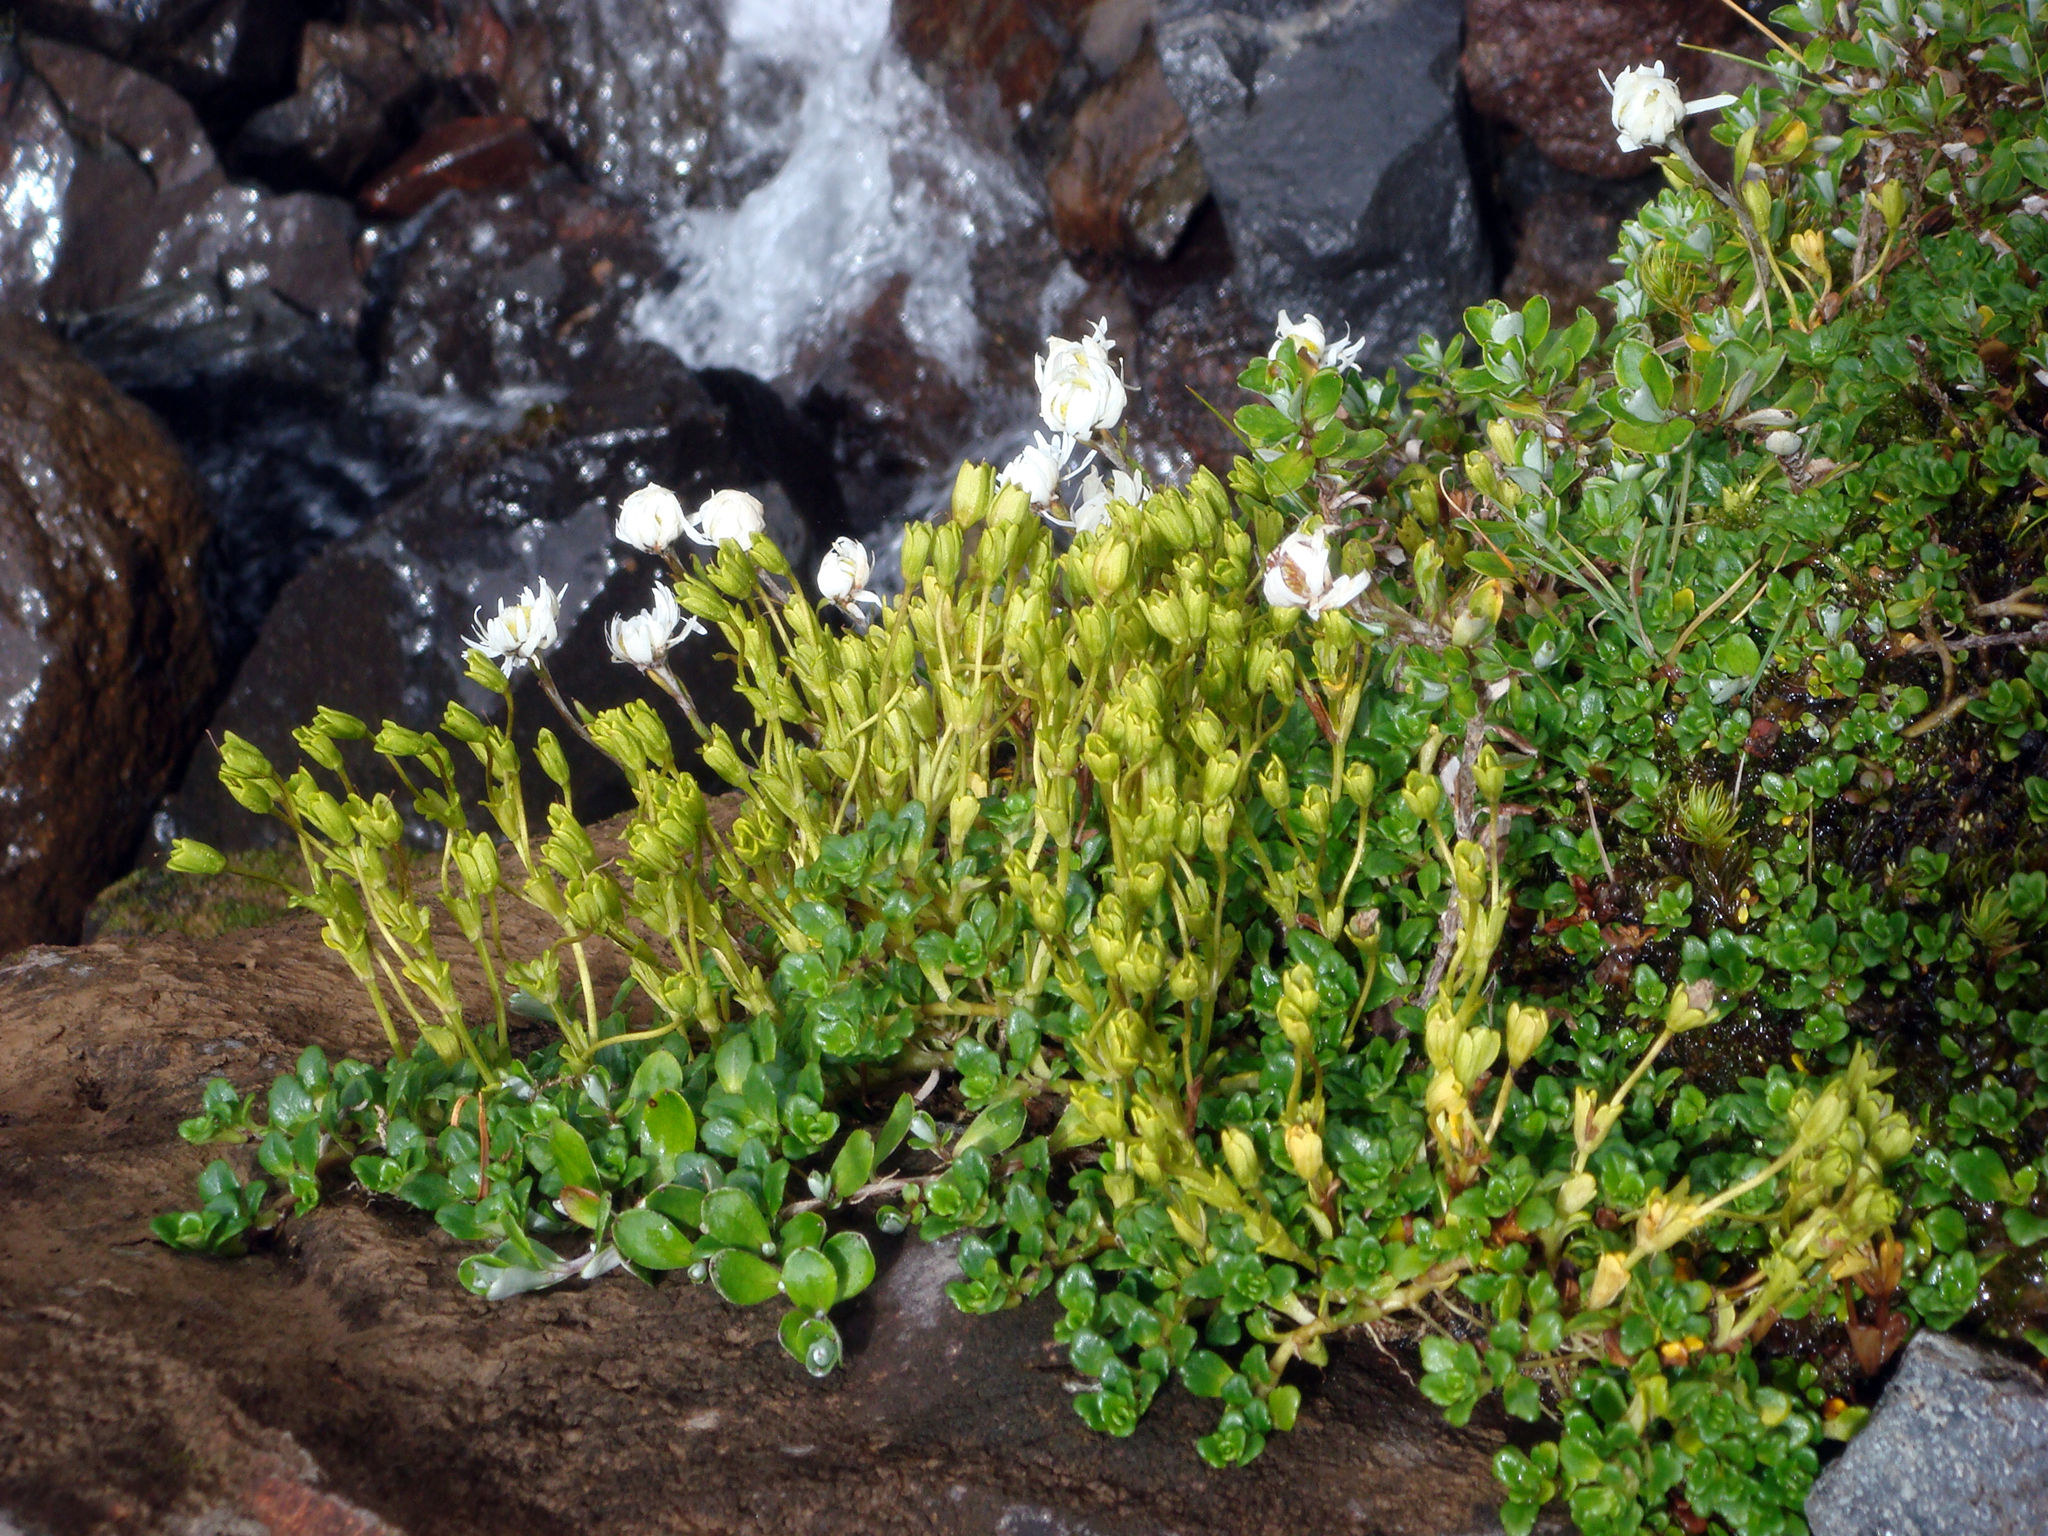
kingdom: Plantae
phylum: Tracheophyta
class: Magnoliopsida
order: Lamiales
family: Plantaginaceae
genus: Ourisia
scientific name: Ourisia caespitosa
